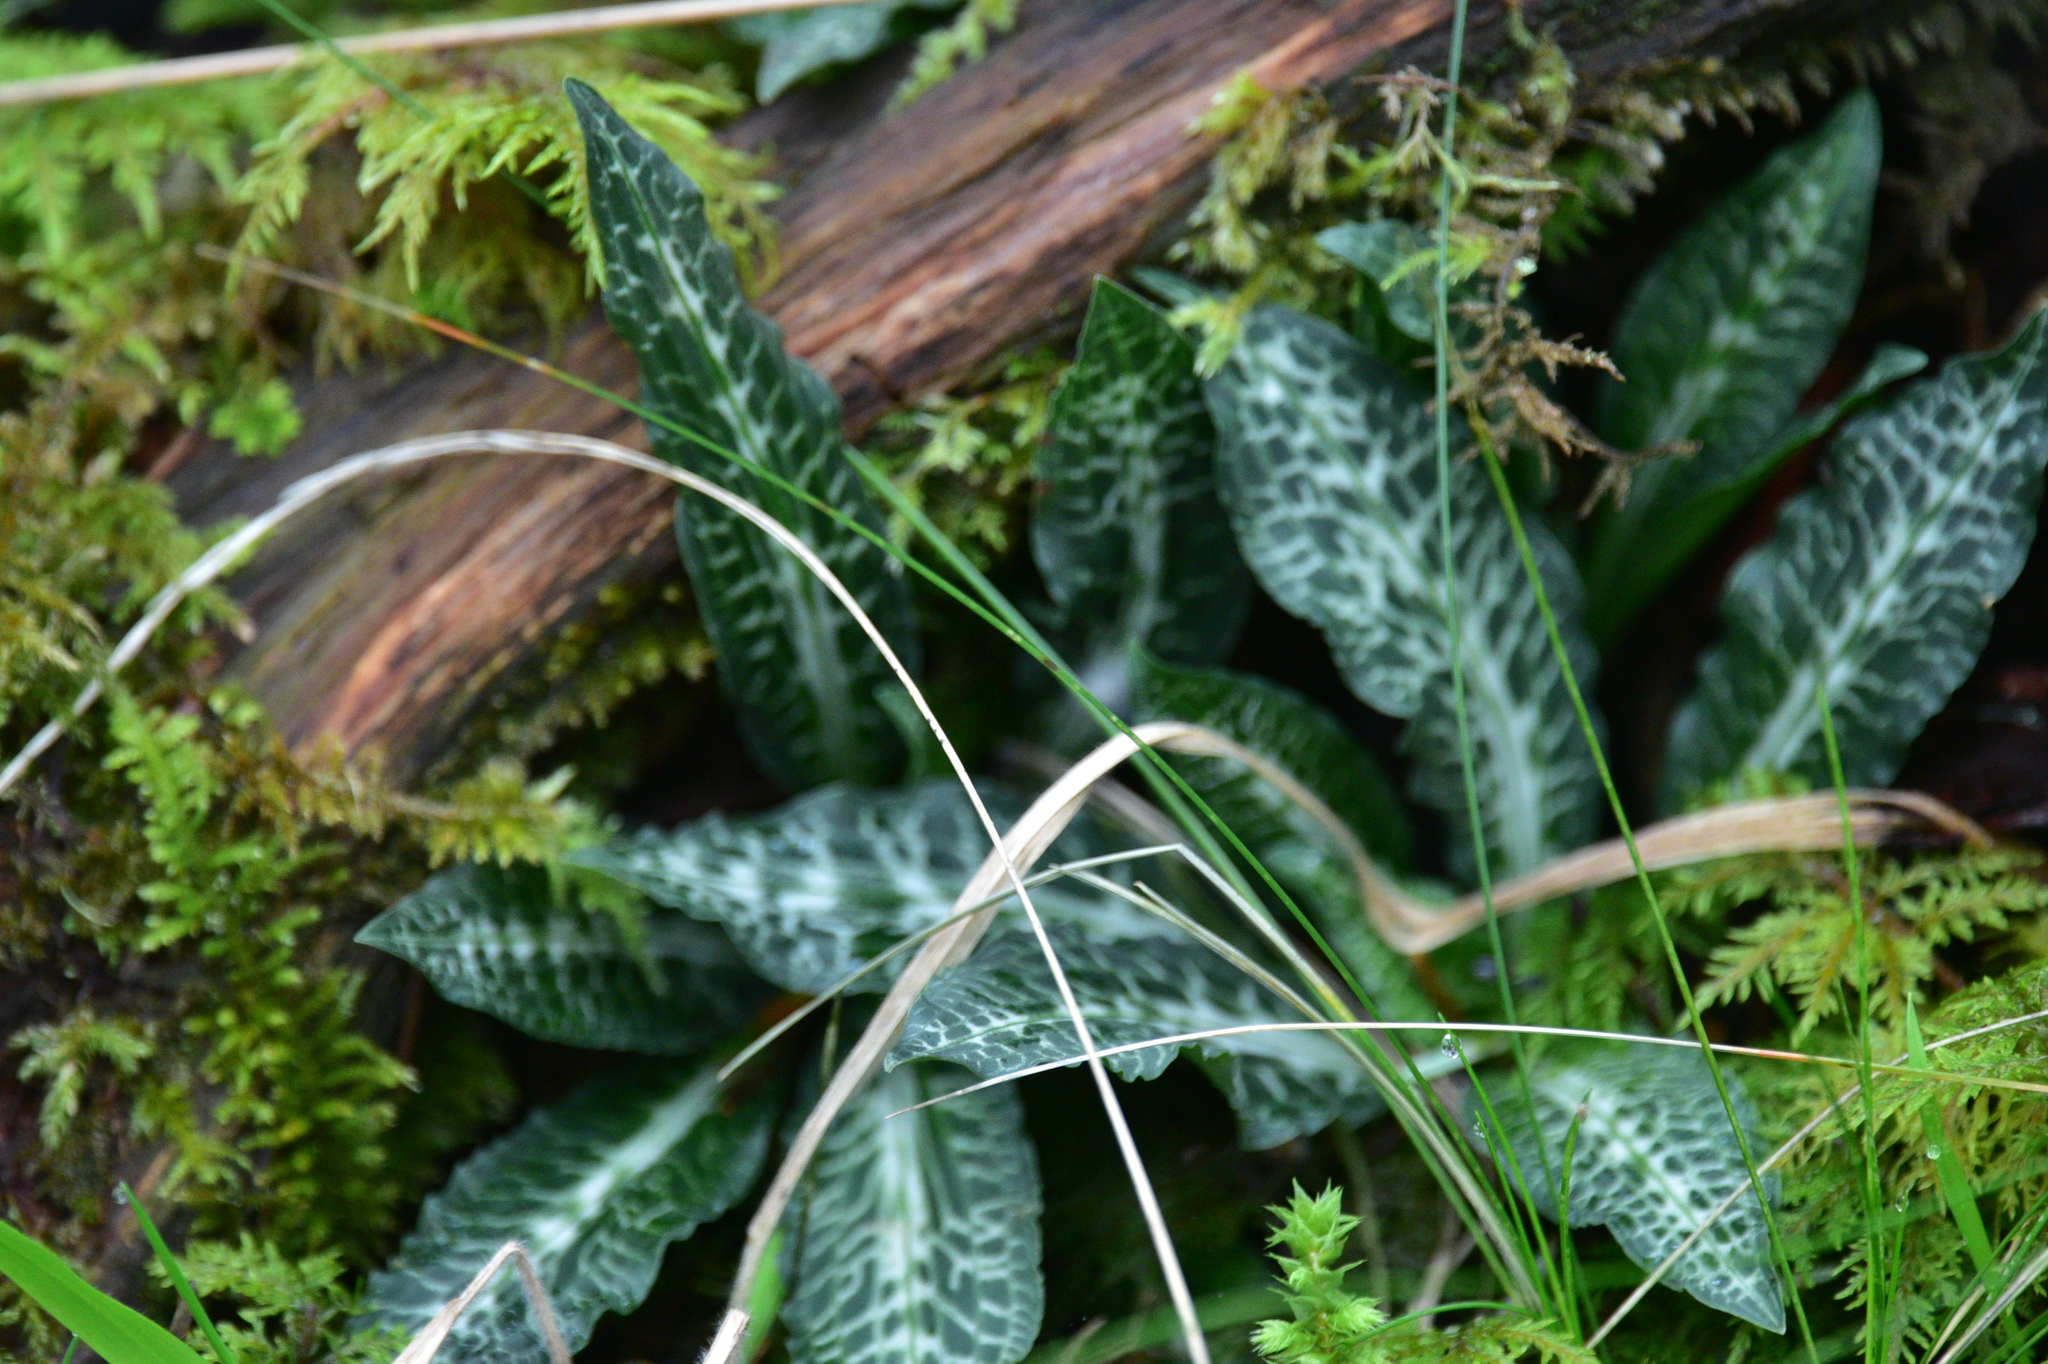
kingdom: Plantae
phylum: Tracheophyta
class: Liliopsida
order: Asparagales
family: Orchidaceae
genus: Goodyera
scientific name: Goodyera oblongifolia
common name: Giant rattlesnake-plantain
